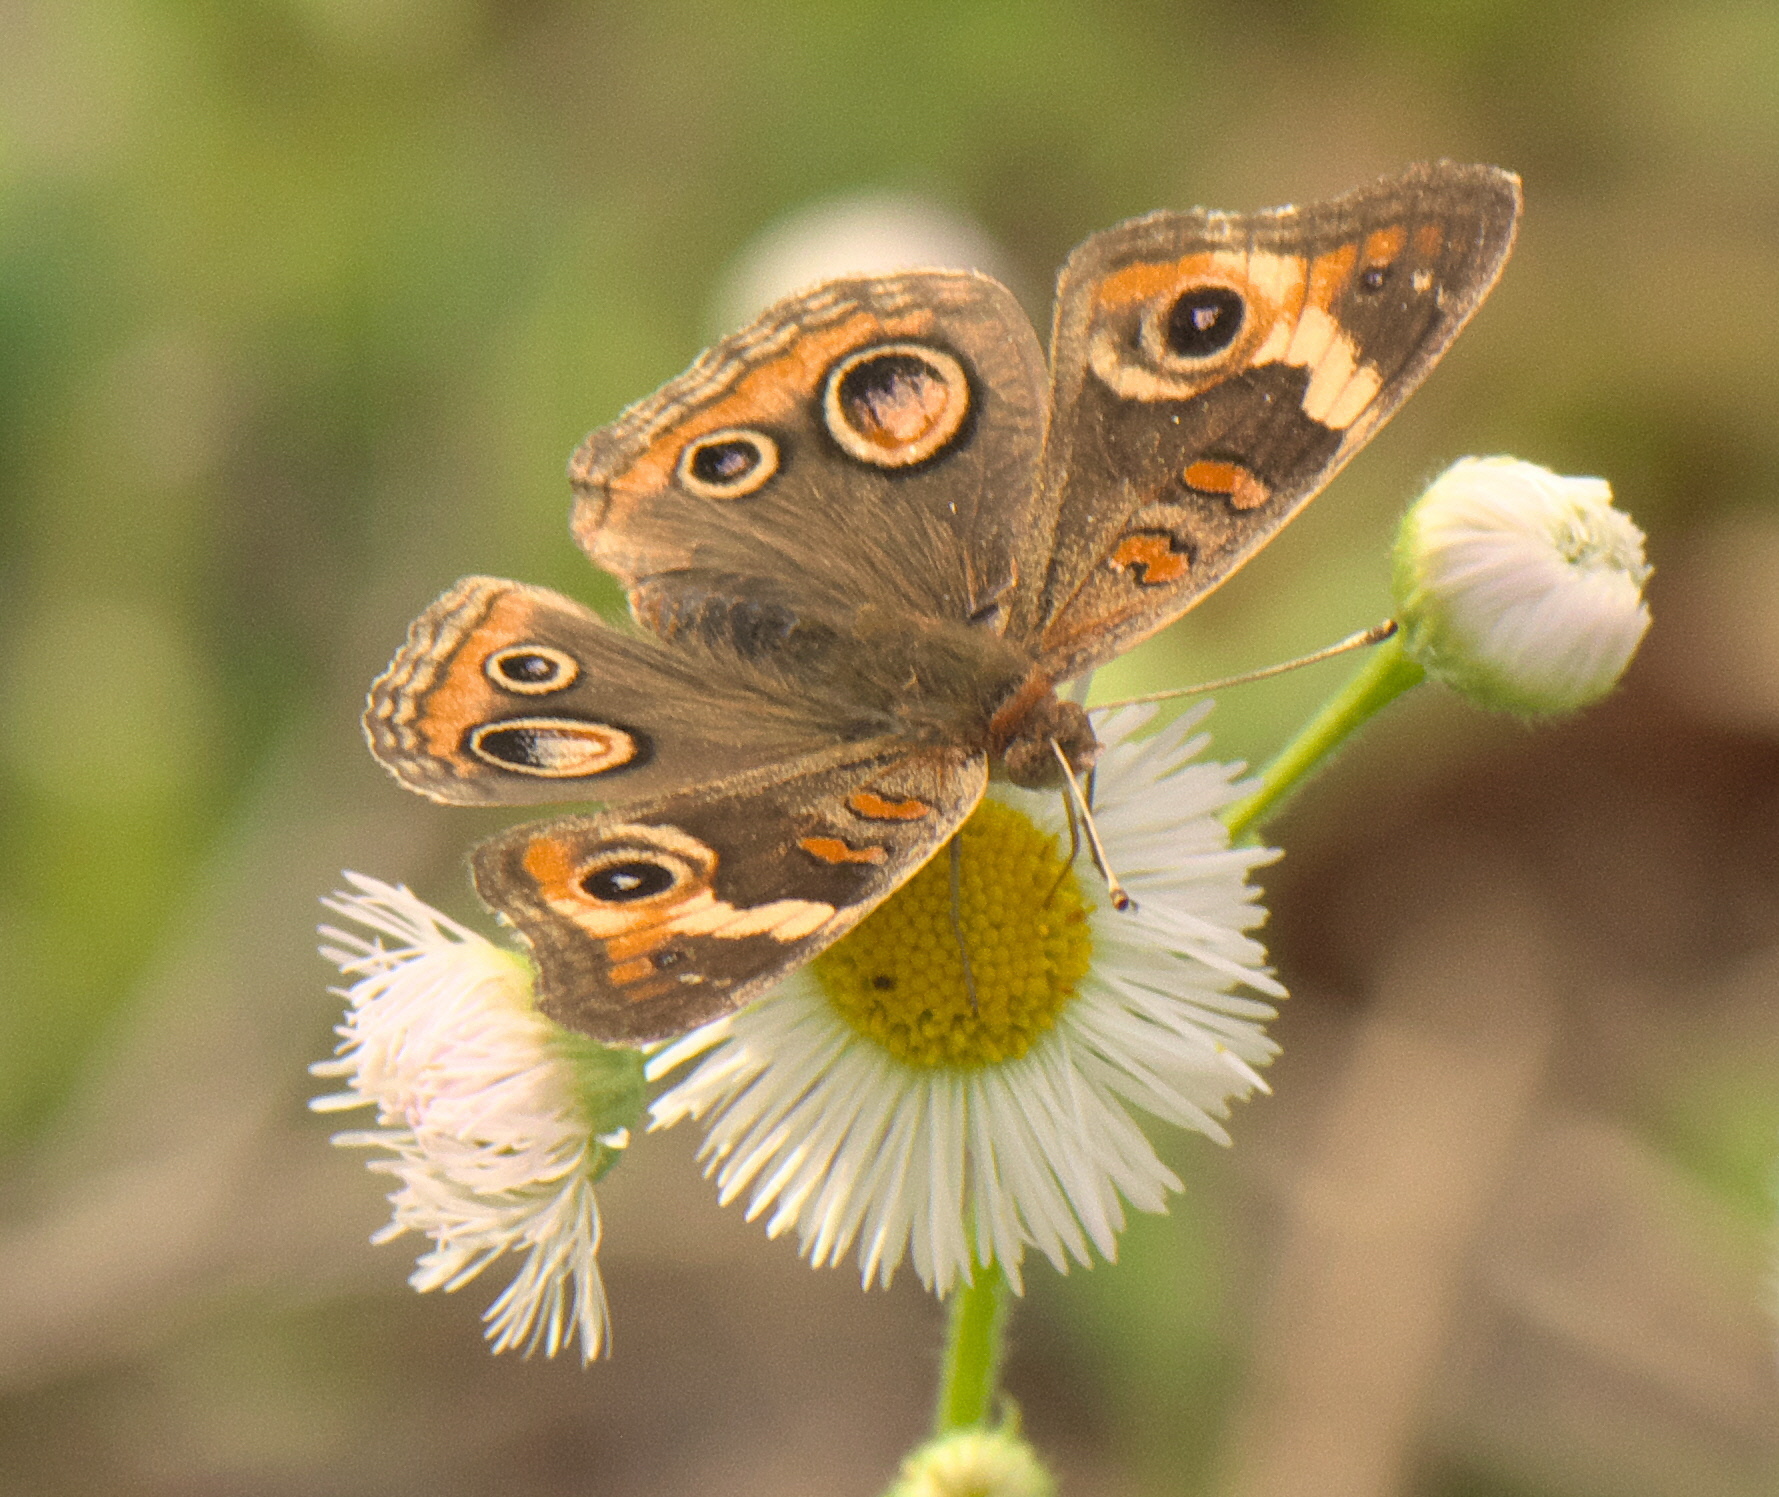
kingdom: Animalia
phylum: Arthropoda
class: Insecta
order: Lepidoptera
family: Nymphalidae
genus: Junonia
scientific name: Junonia coenia
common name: Common buckeye
